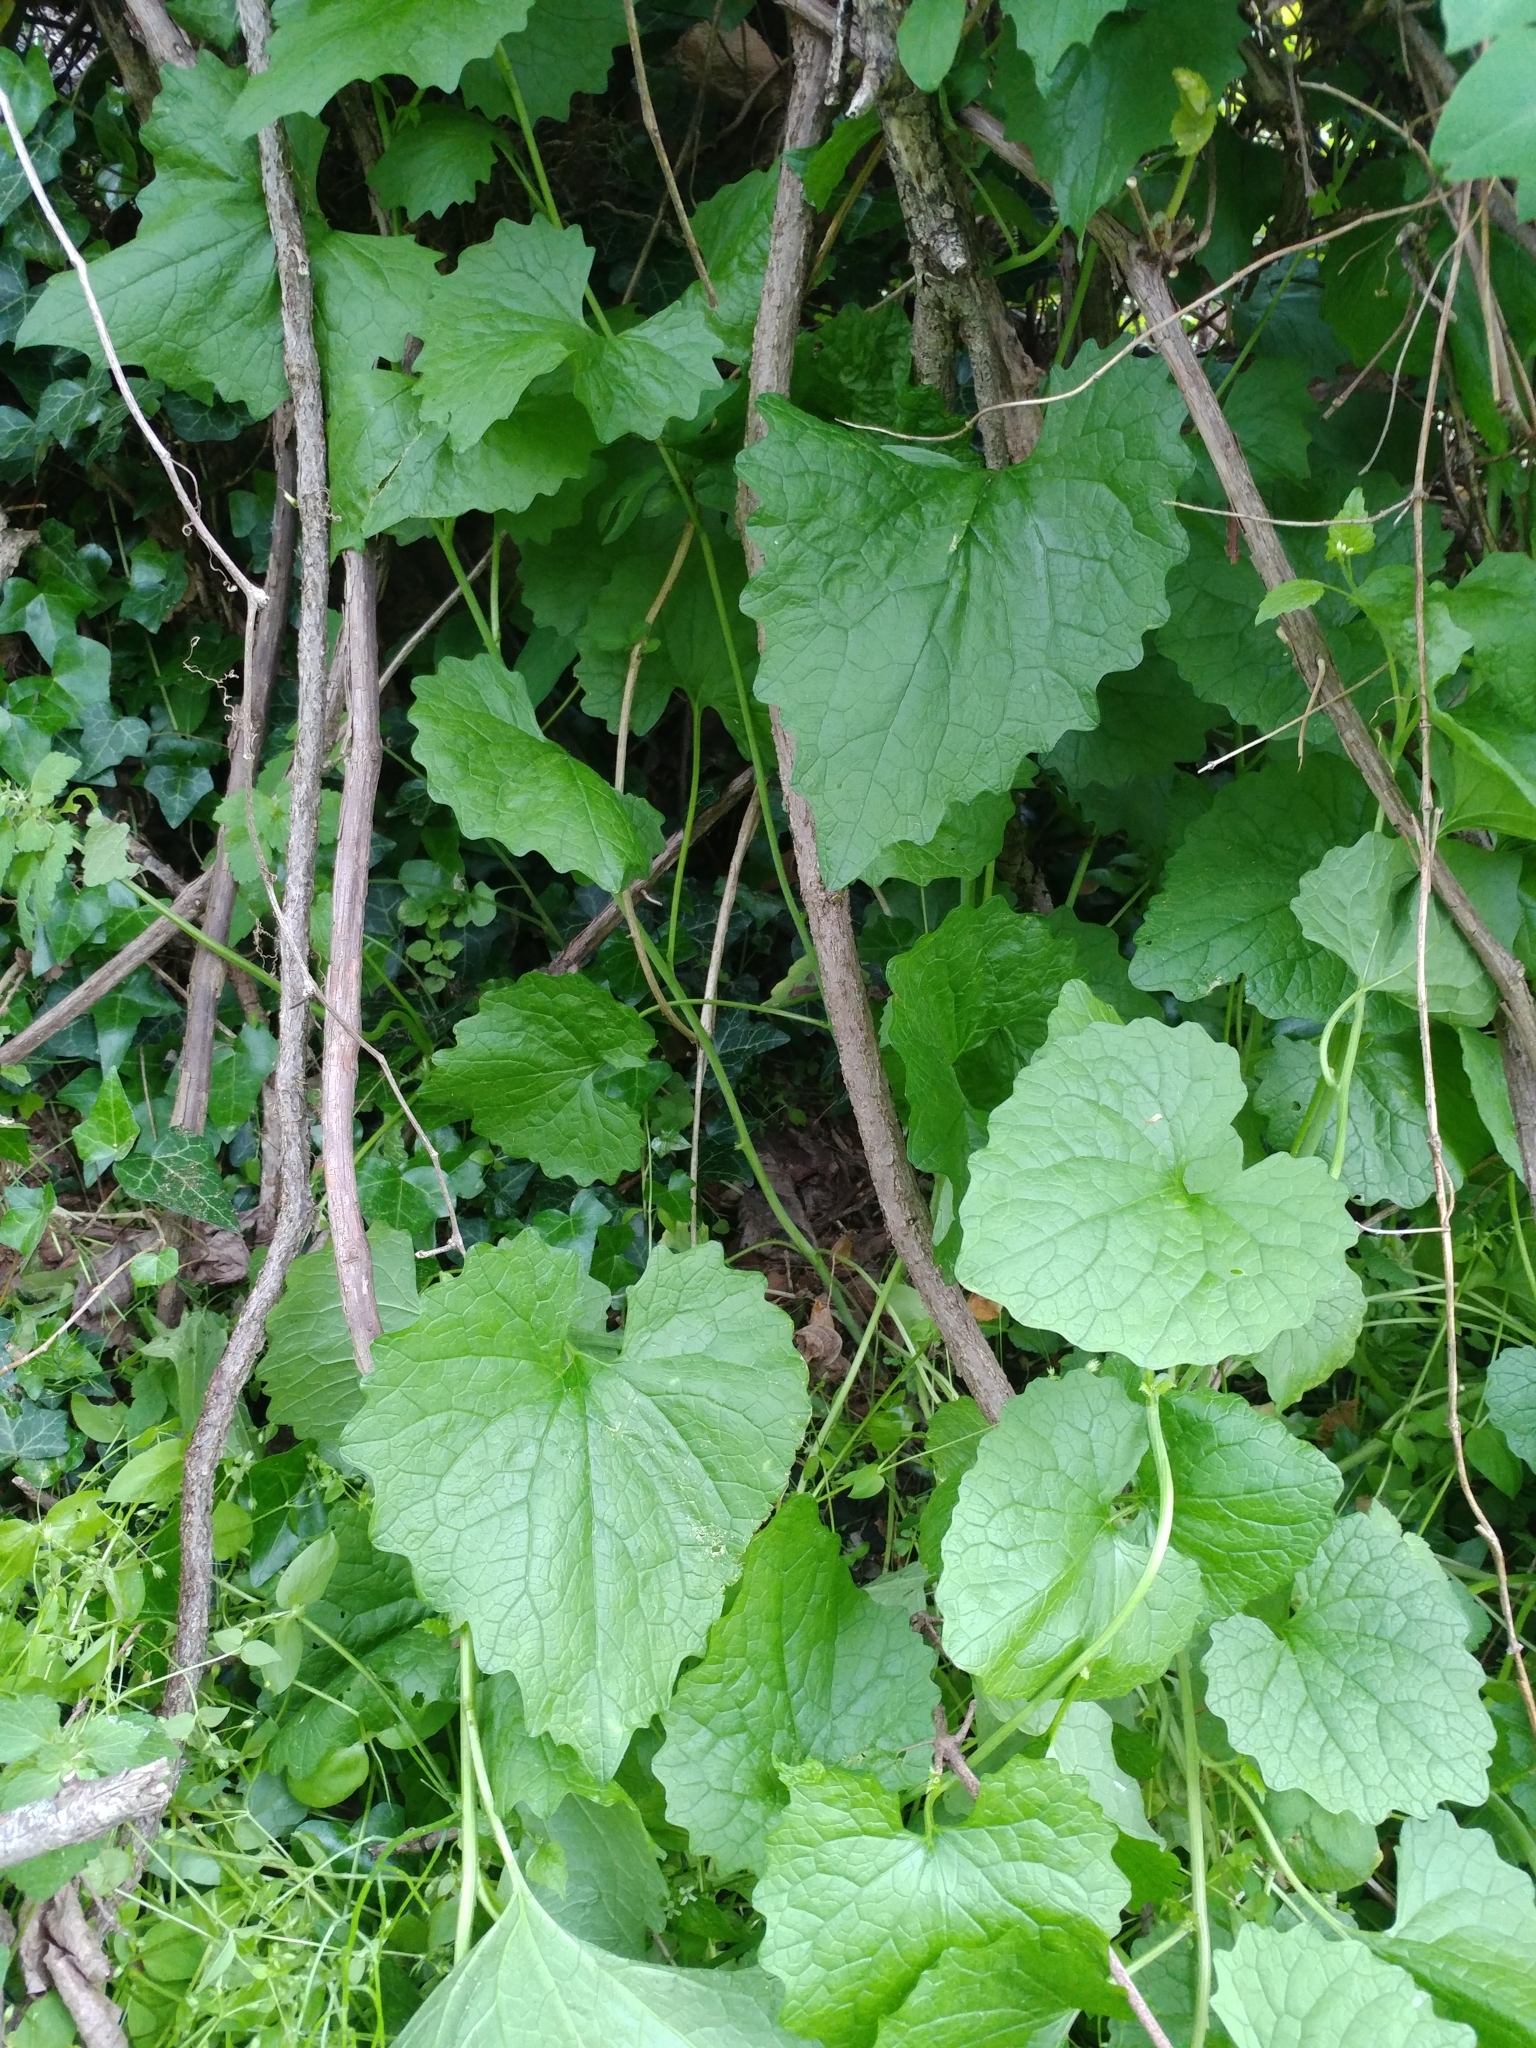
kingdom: Plantae
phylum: Tracheophyta
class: Magnoliopsida
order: Brassicales
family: Brassicaceae
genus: Alliaria
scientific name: Alliaria petiolata
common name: Garlic mustard
